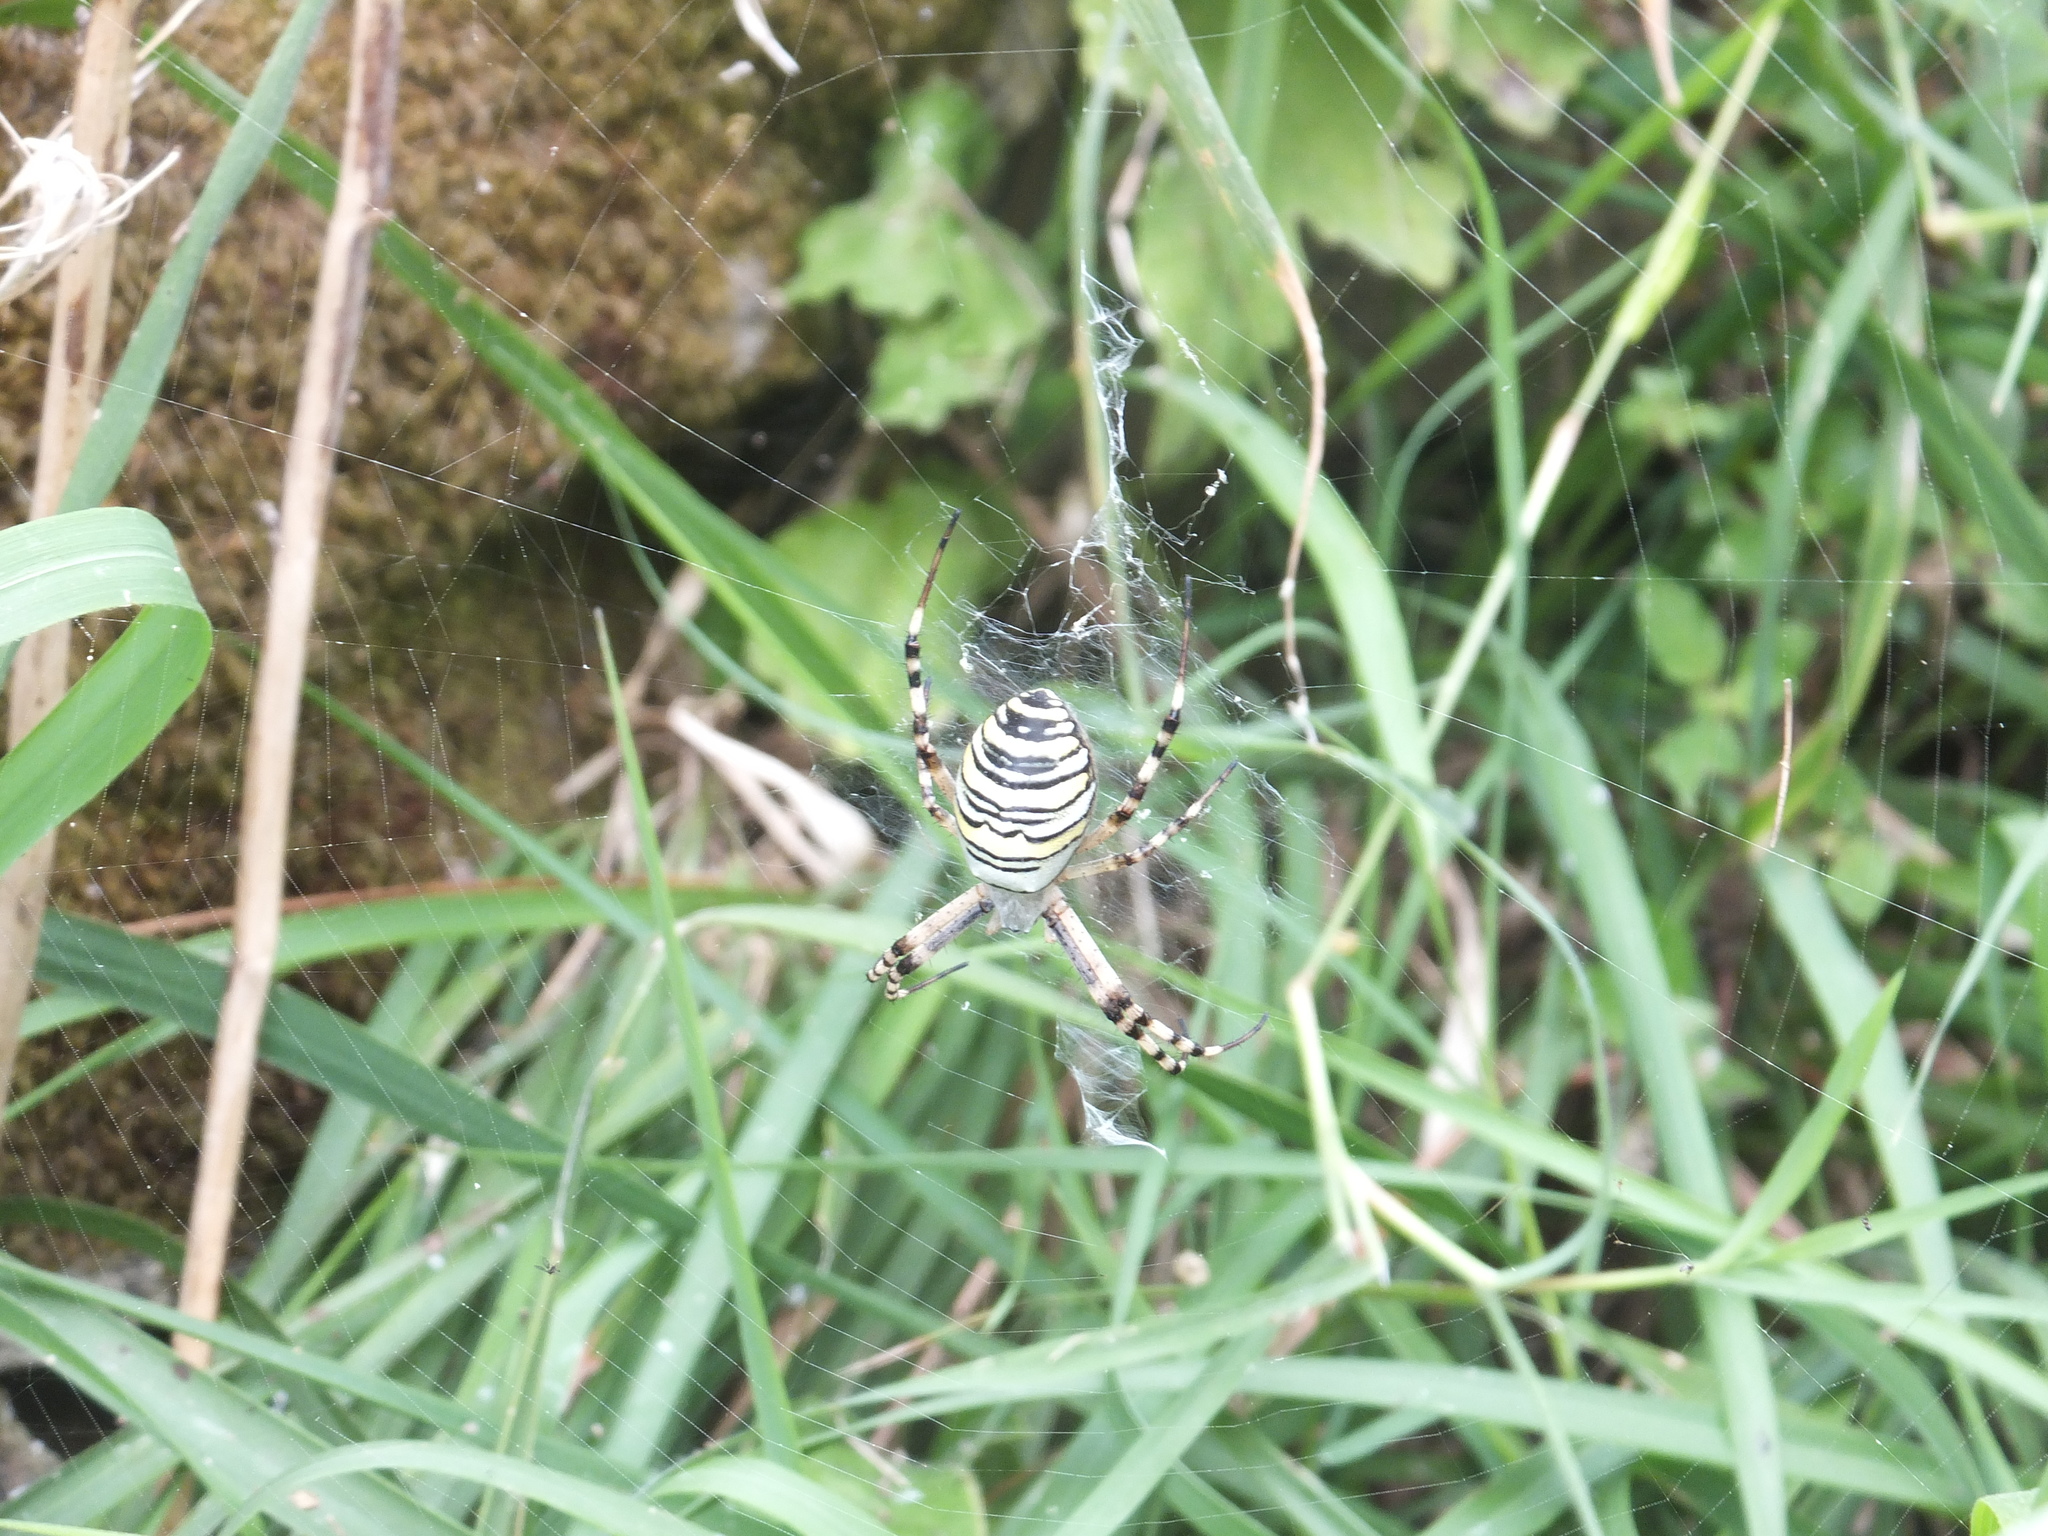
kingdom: Animalia
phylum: Arthropoda
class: Arachnida
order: Araneae
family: Araneidae
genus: Argiope
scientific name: Argiope bruennichi
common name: Wasp spider
